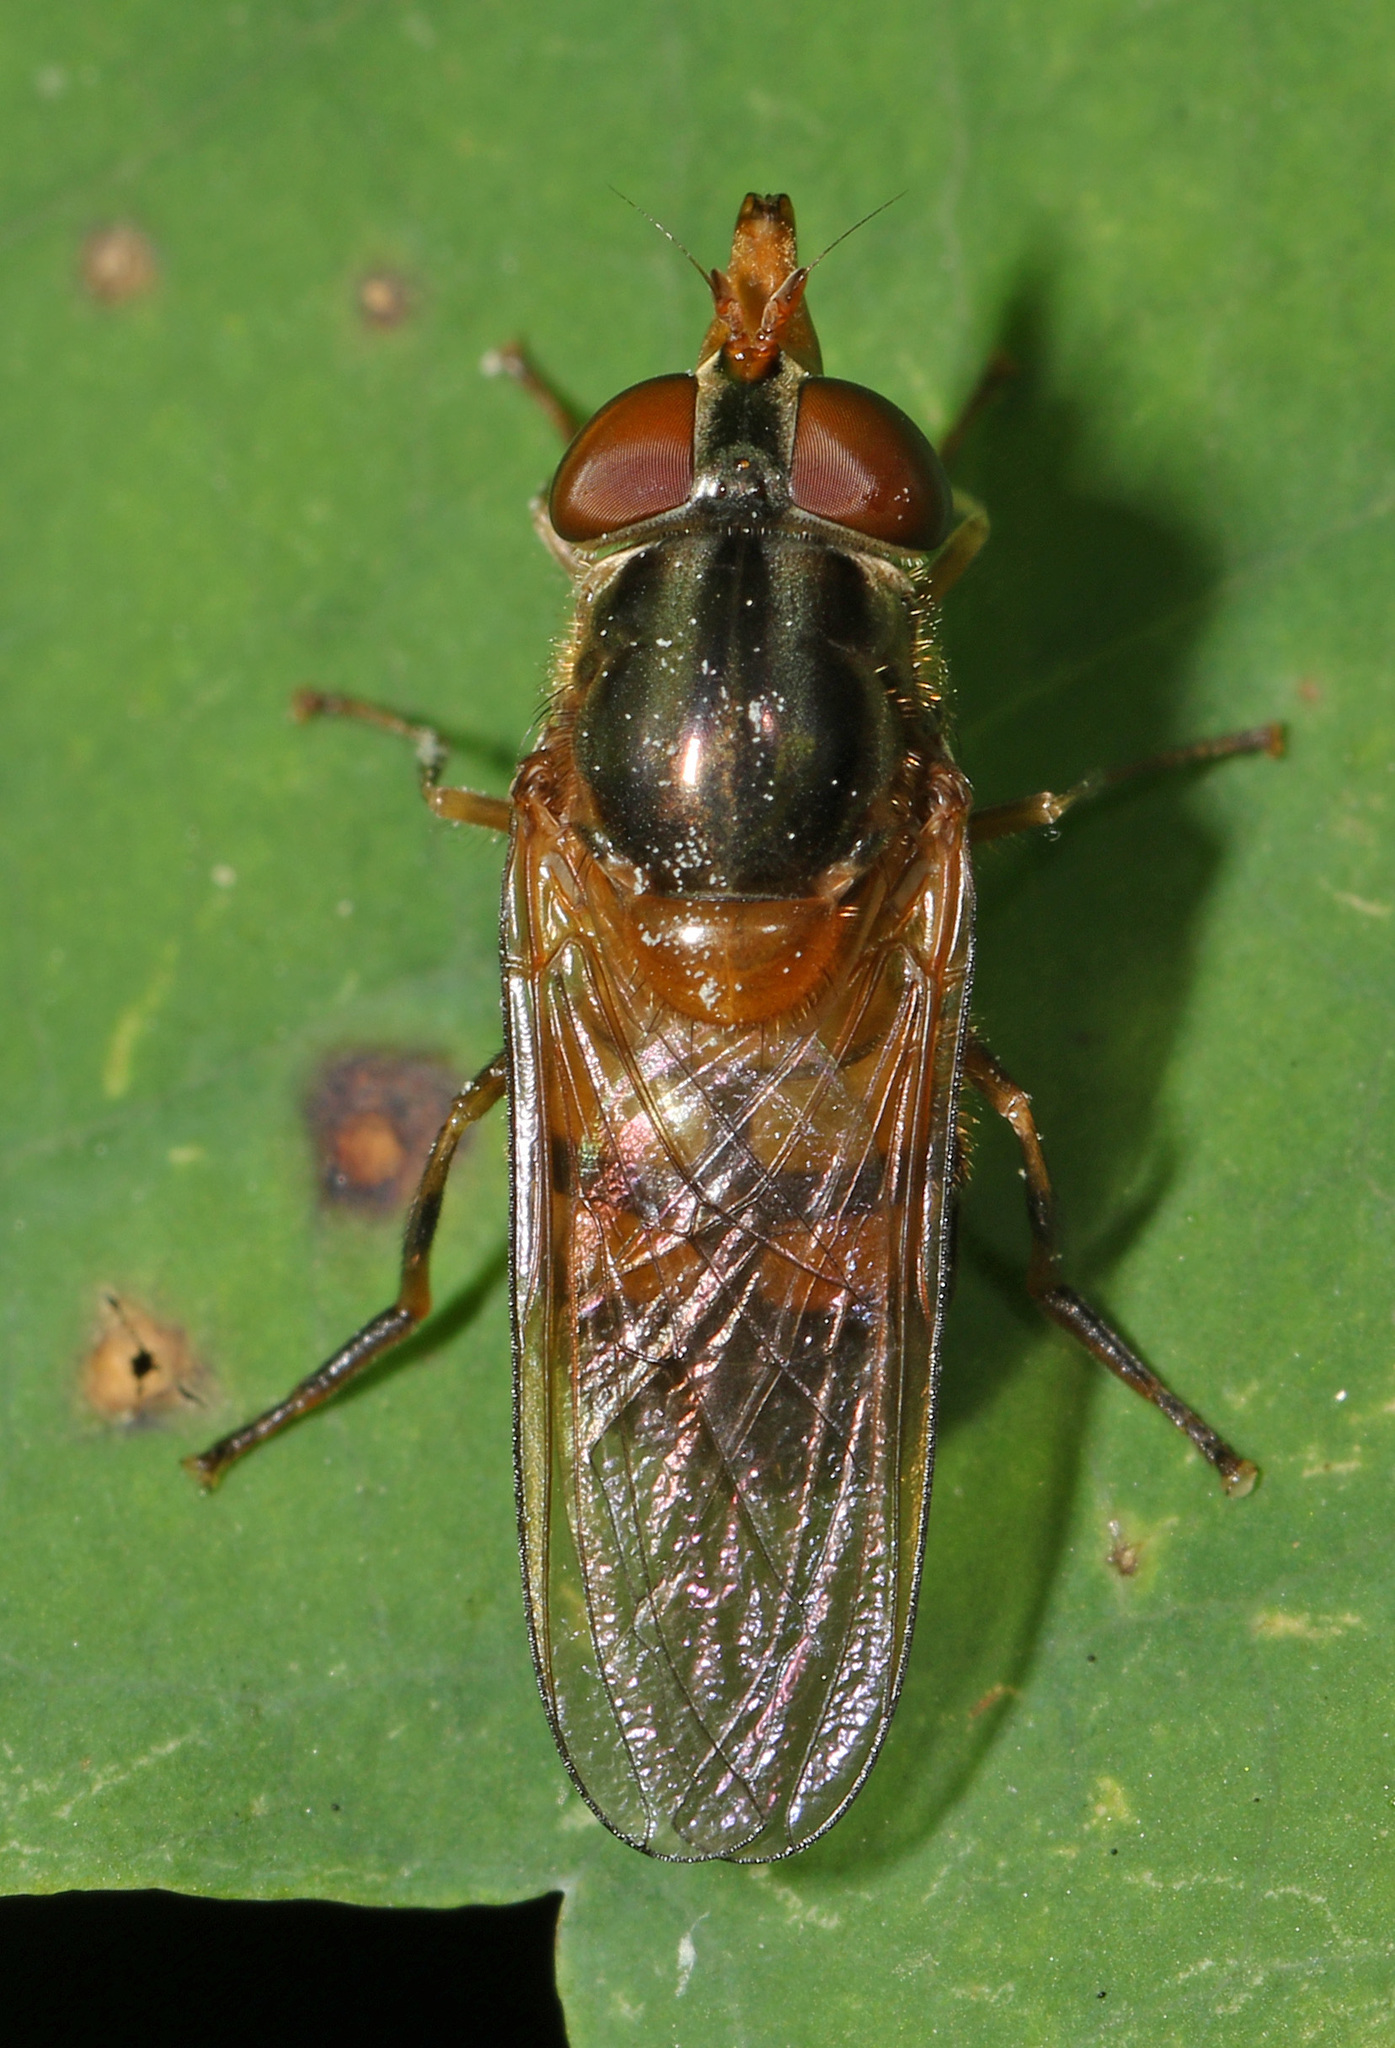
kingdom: Animalia
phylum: Arthropoda
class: Insecta
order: Diptera
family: Syrphidae
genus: Rhingia
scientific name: Rhingia nasica
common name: American snout fly
